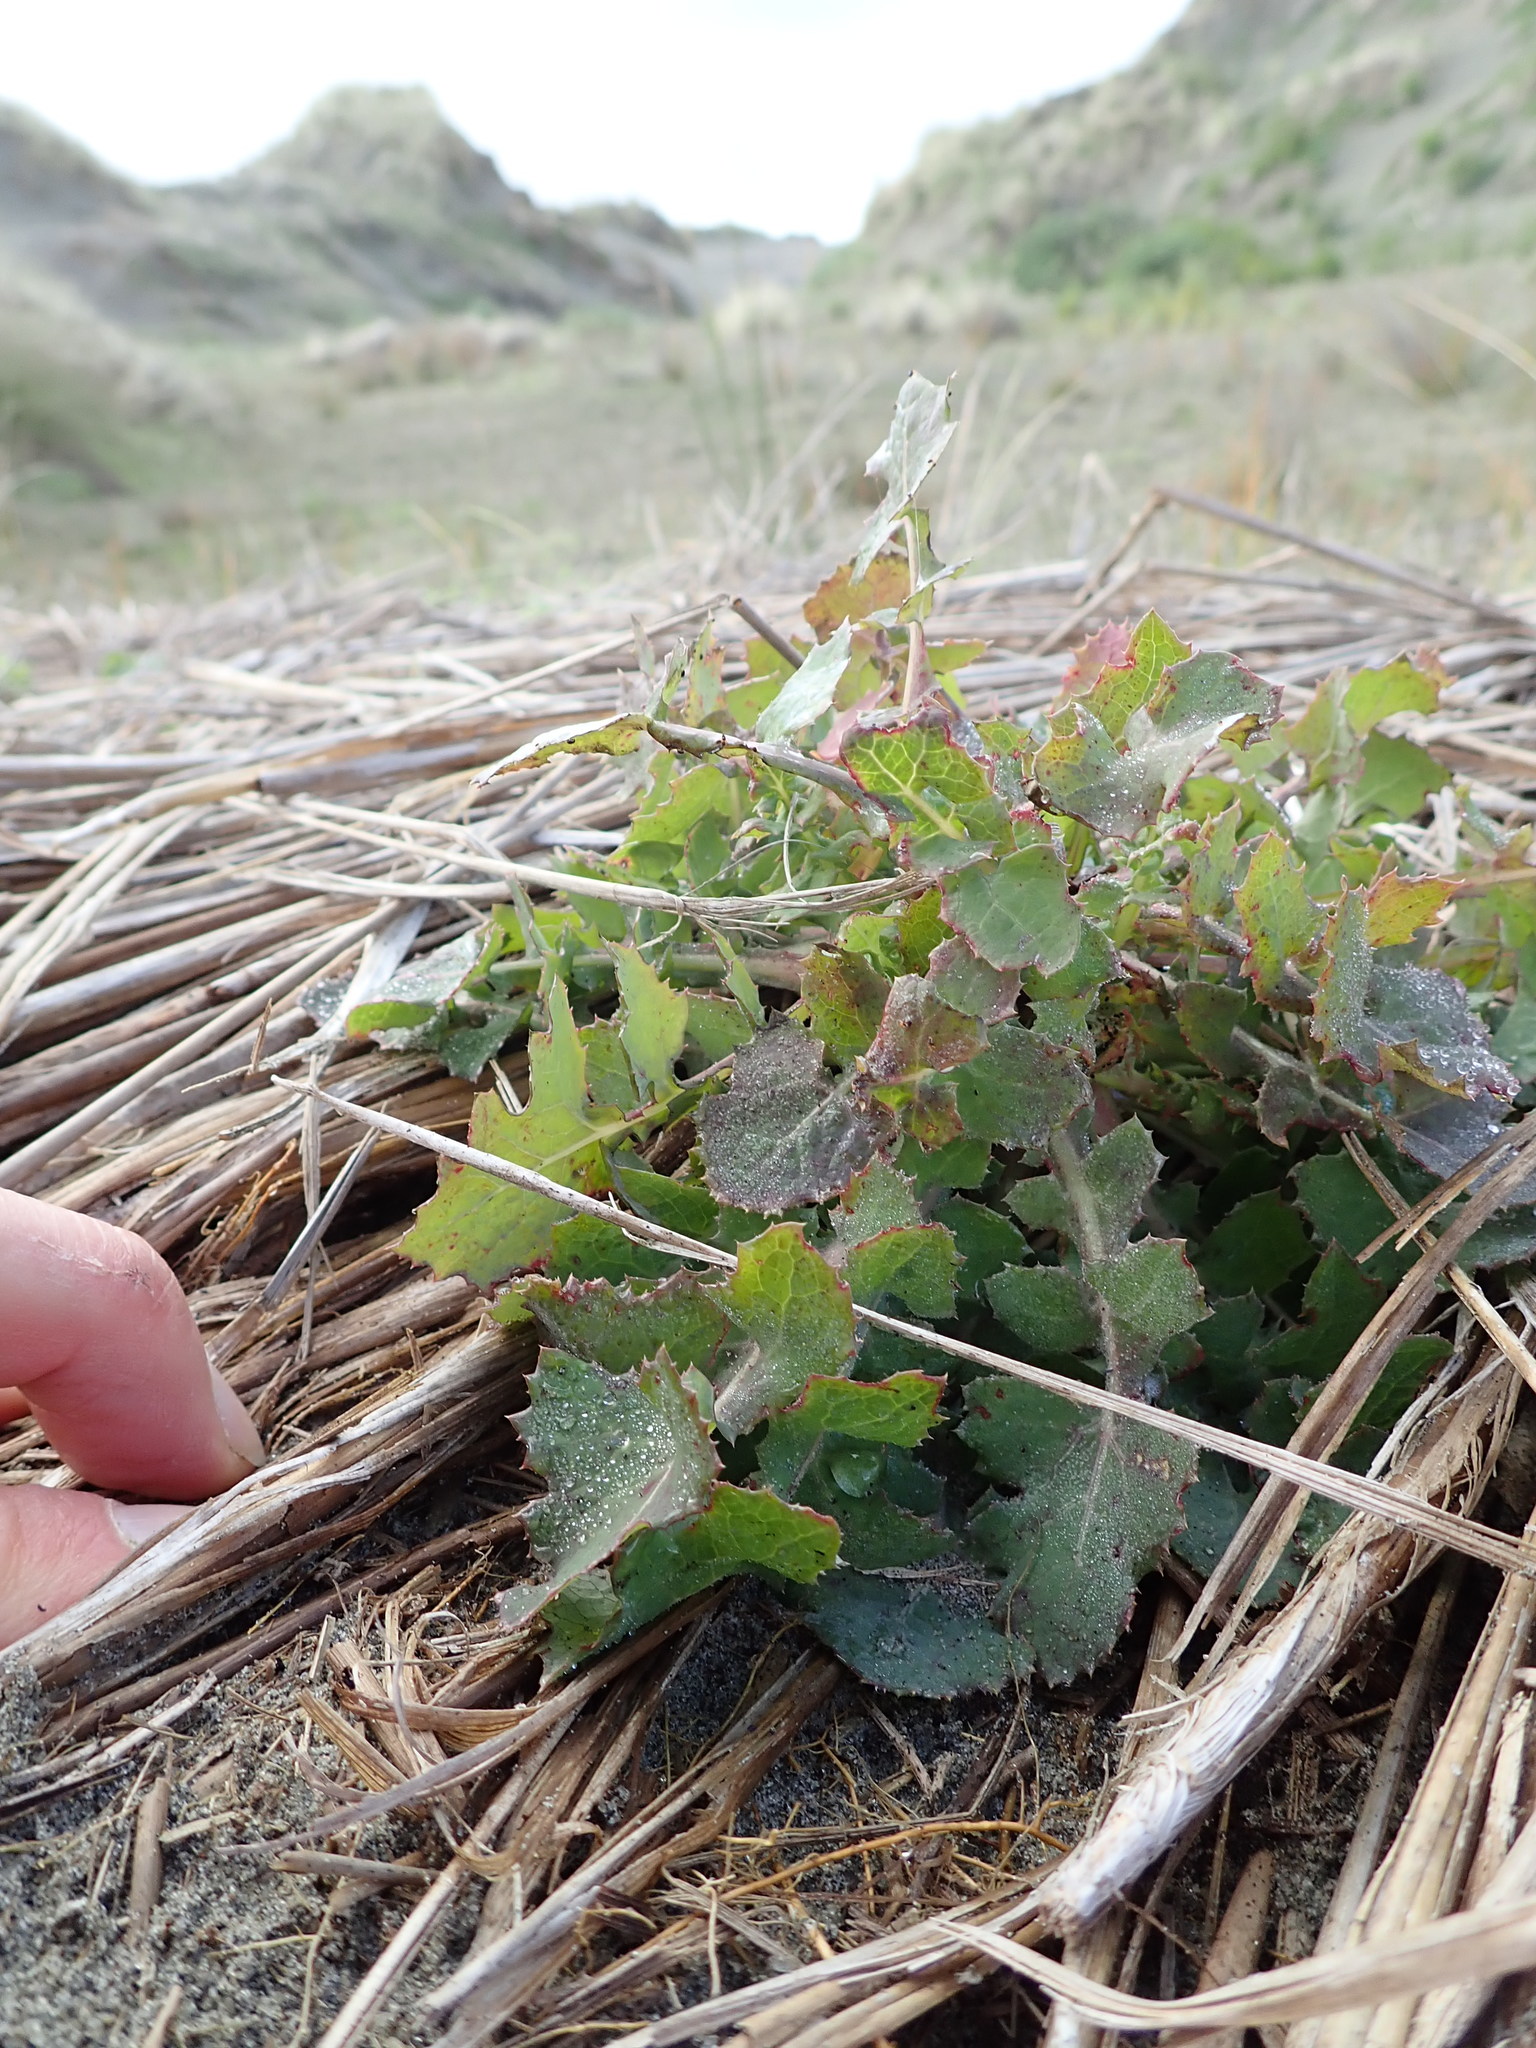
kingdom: Plantae
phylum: Tracheophyta
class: Magnoliopsida
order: Asterales
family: Asteraceae
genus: Sonchus
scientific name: Sonchus oleraceus
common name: Common sowthistle
